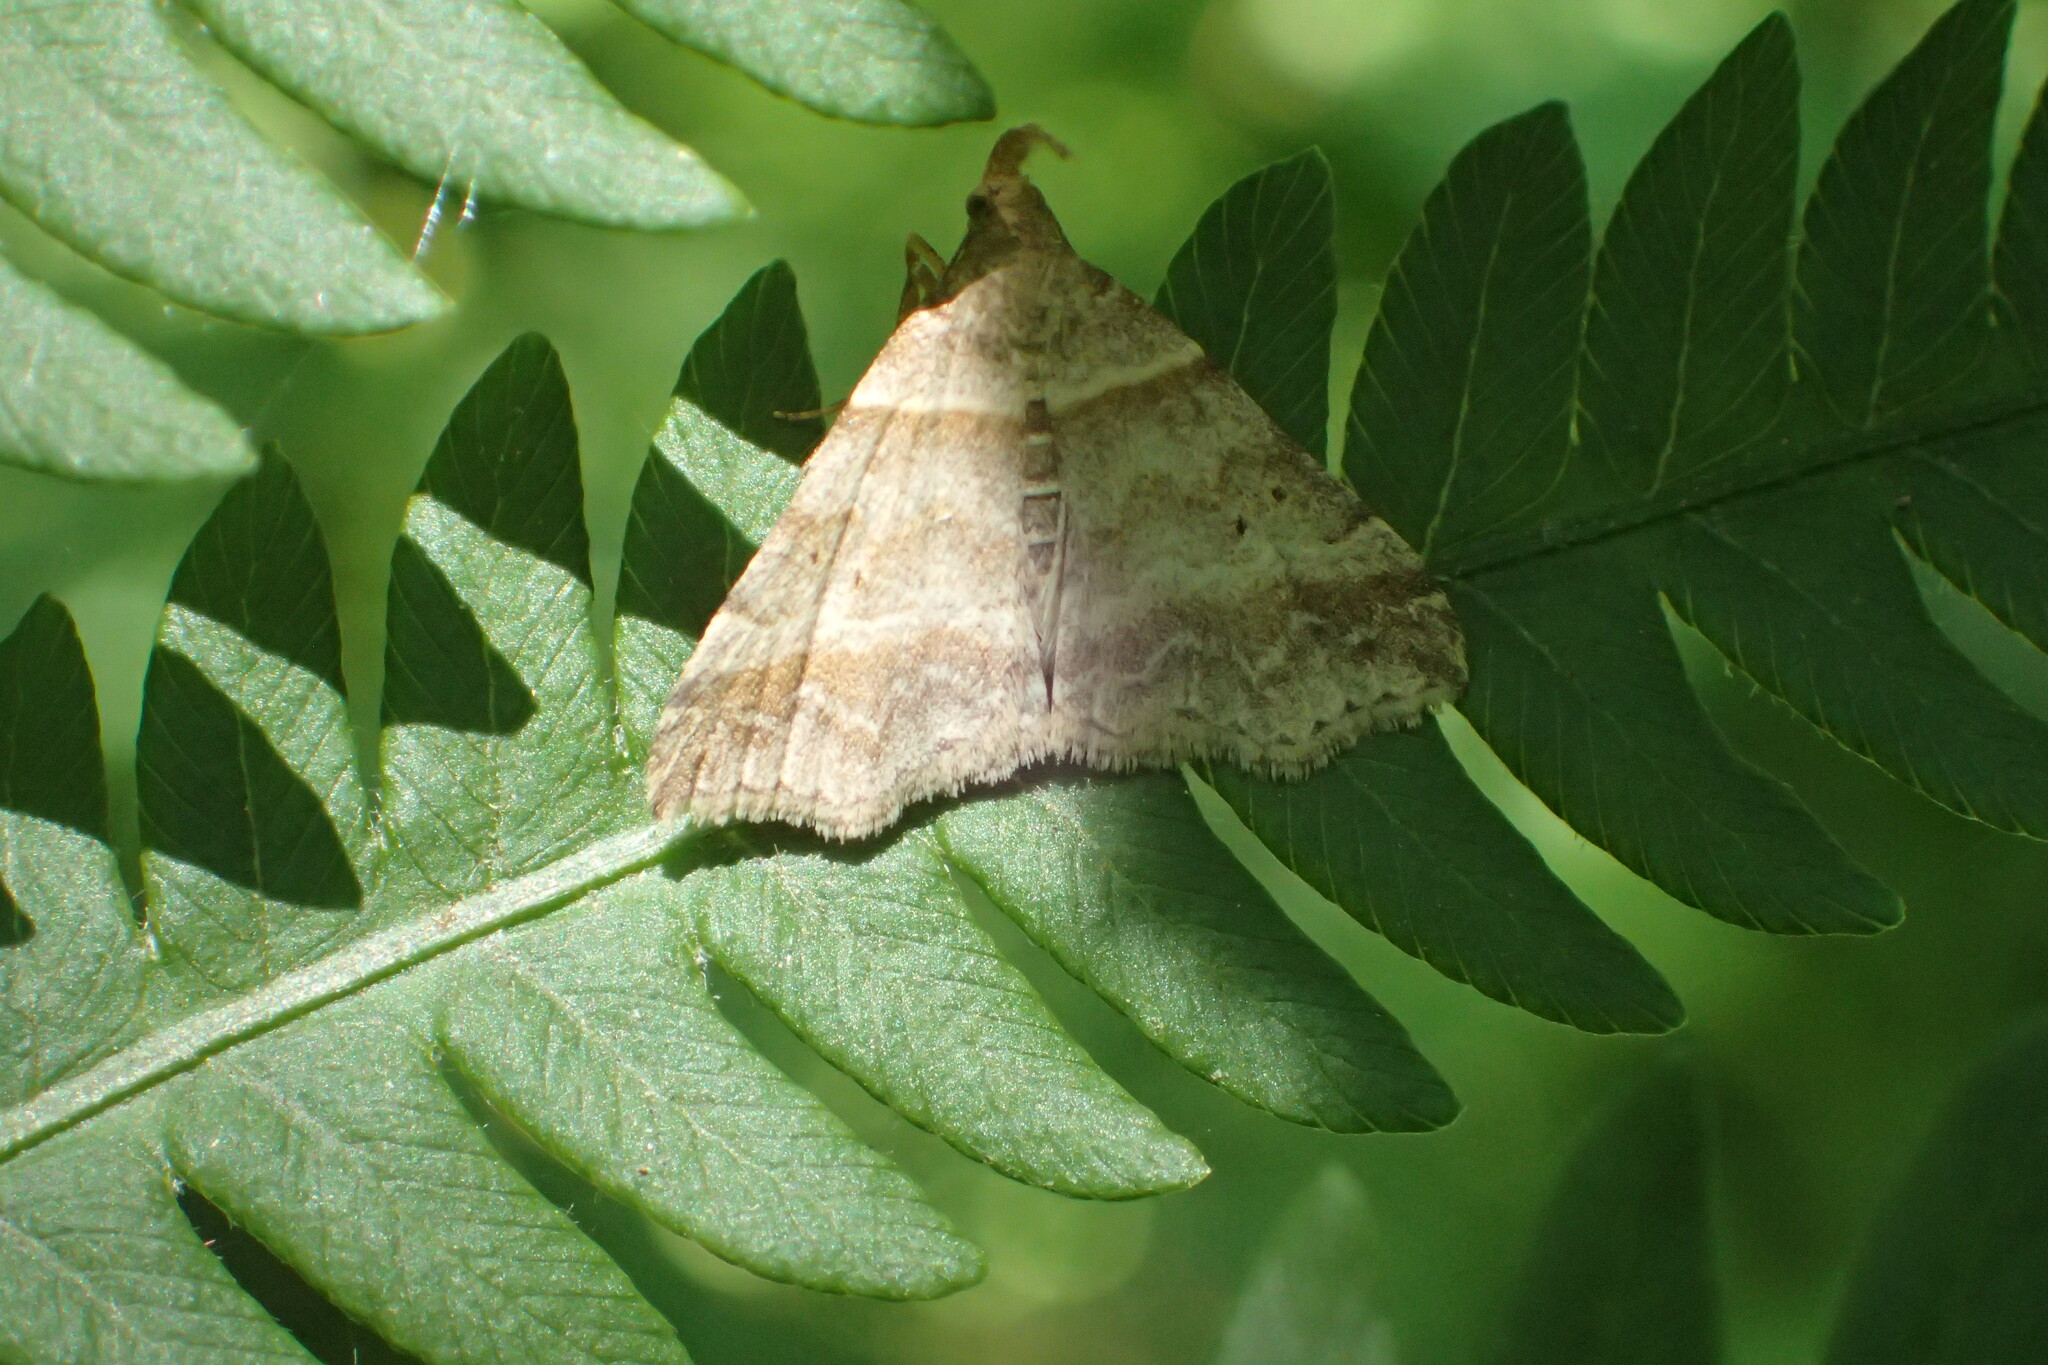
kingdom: Animalia
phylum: Arthropoda
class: Insecta
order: Lepidoptera
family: Erebidae
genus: Phaeolita
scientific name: Phaeolita pyramusalis
